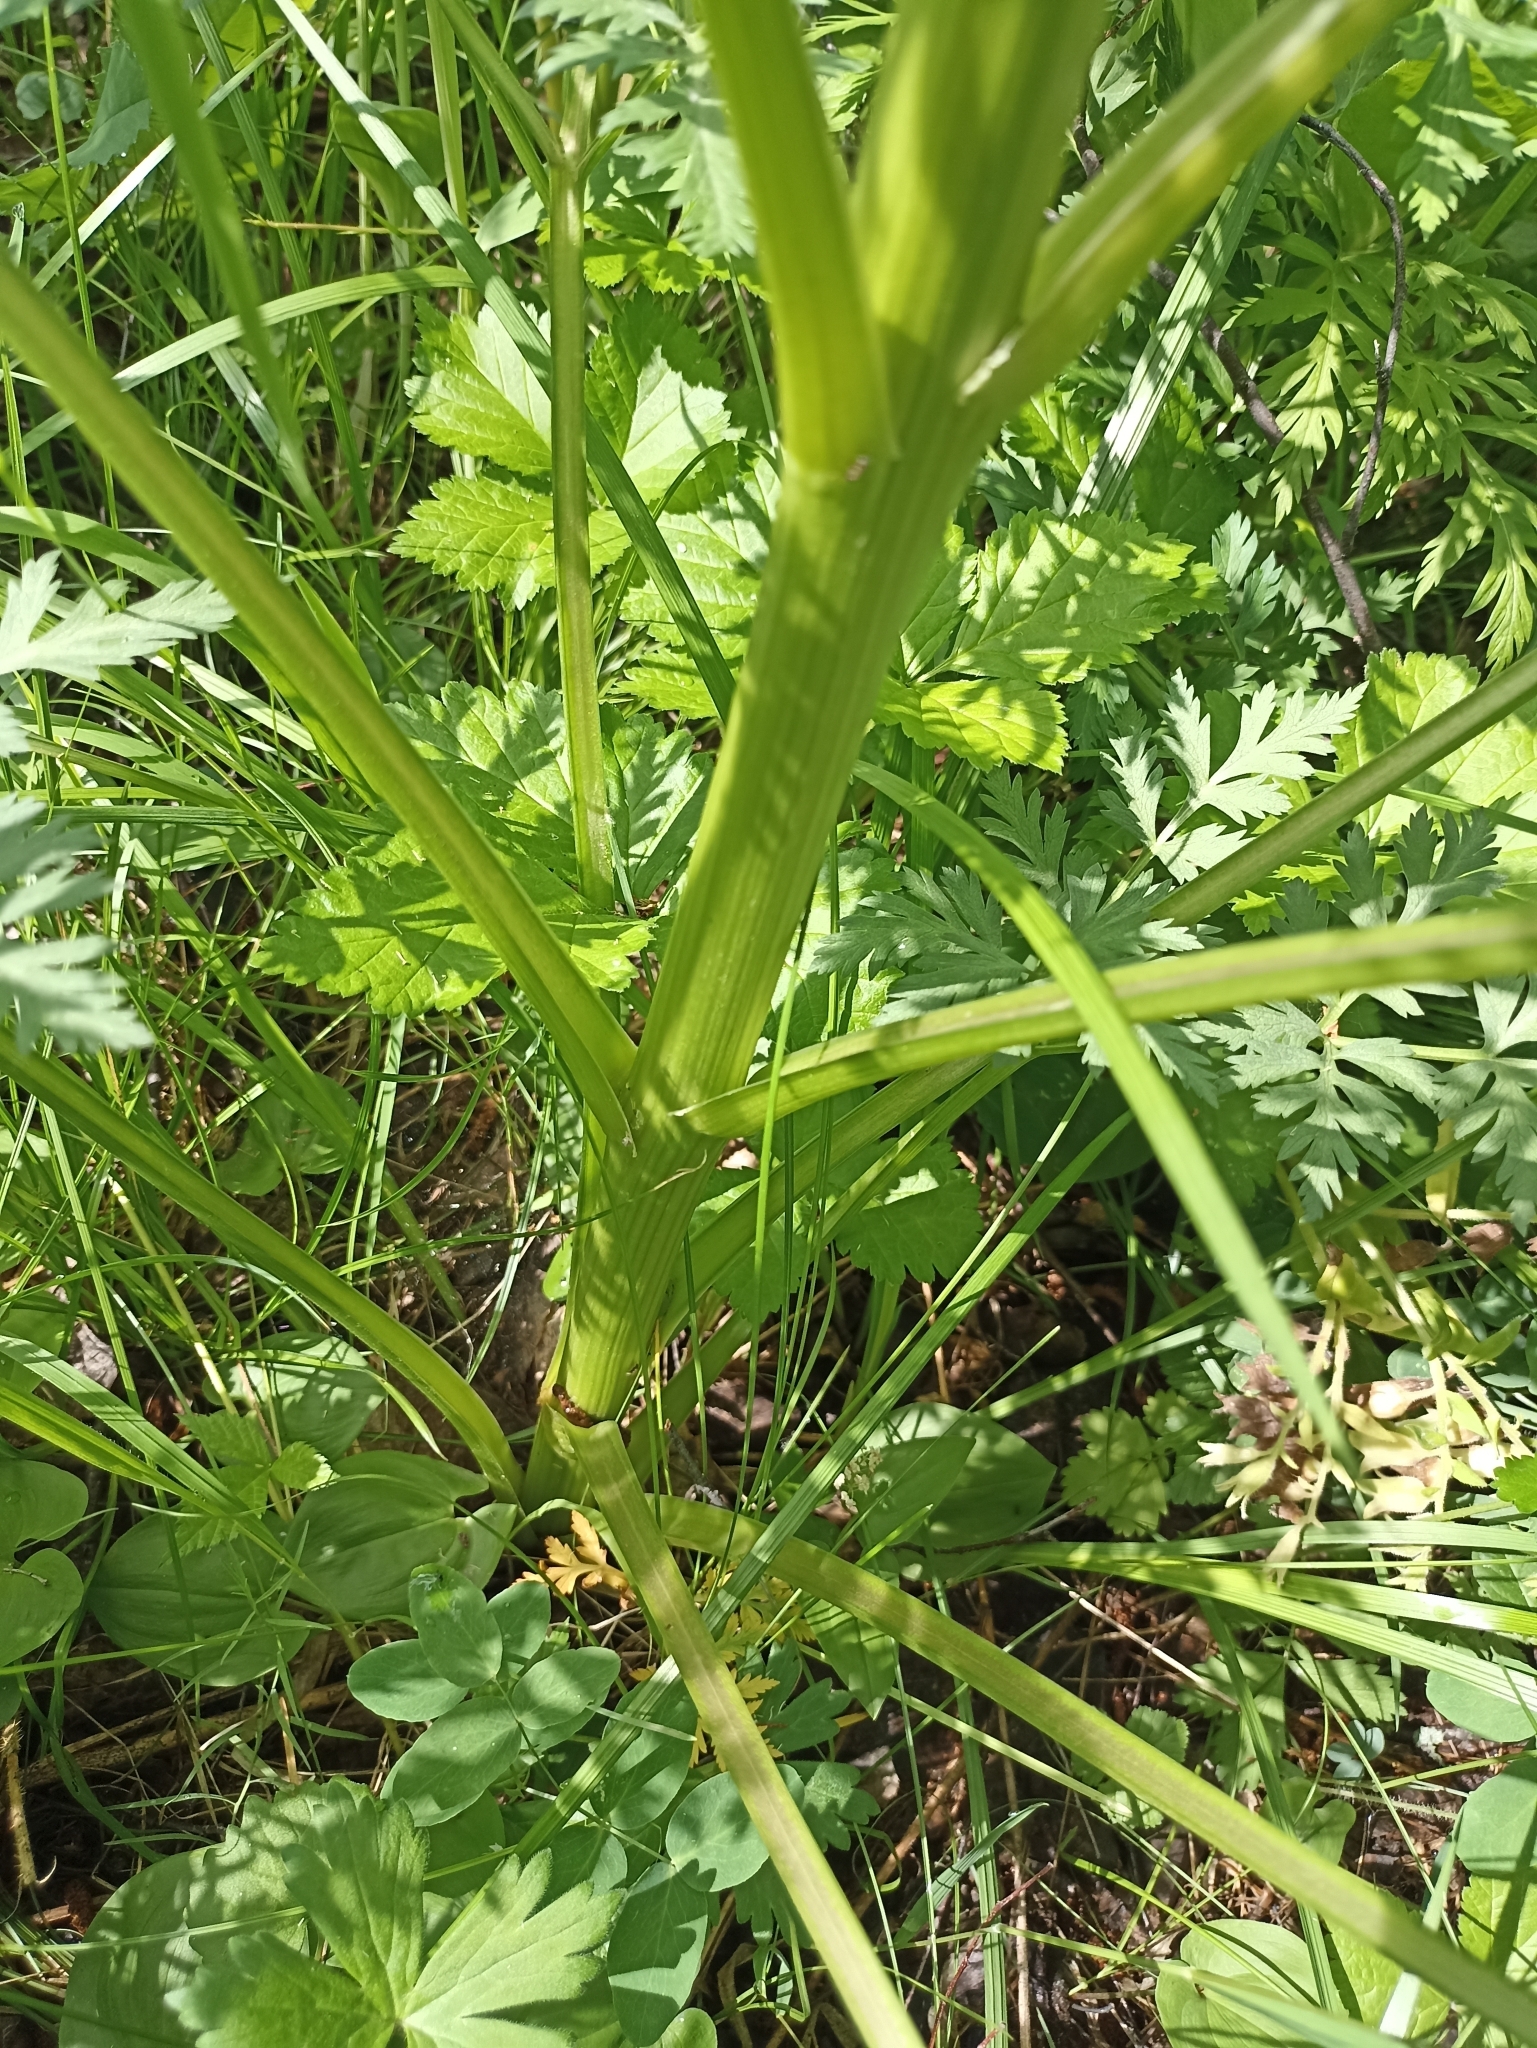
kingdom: Plantae
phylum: Tracheophyta
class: Magnoliopsida
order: Apiales
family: Apiaceae
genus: Pleurospermum
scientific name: Pleurospermum uralense
